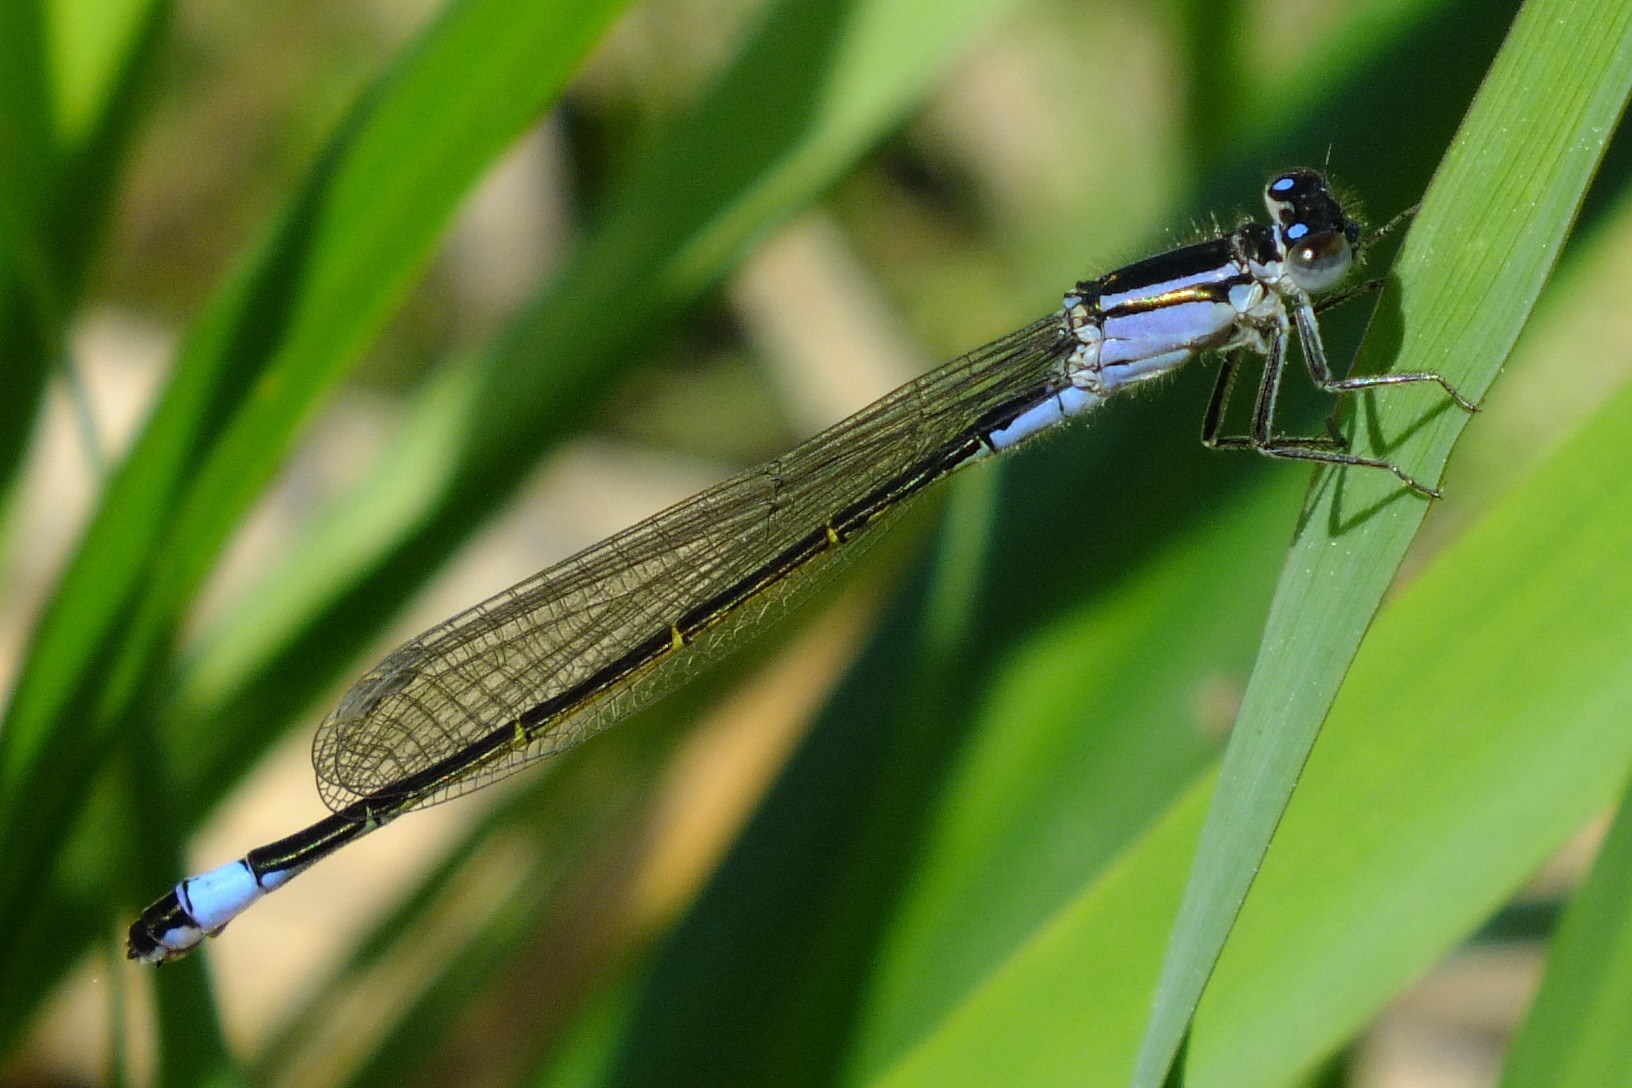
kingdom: Animalia
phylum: Arthropoda
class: Insecta
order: Odonata
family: Coenagrionidae
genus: Ischnura
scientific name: Ischnura elegans
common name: Blue-tailed damselfly
